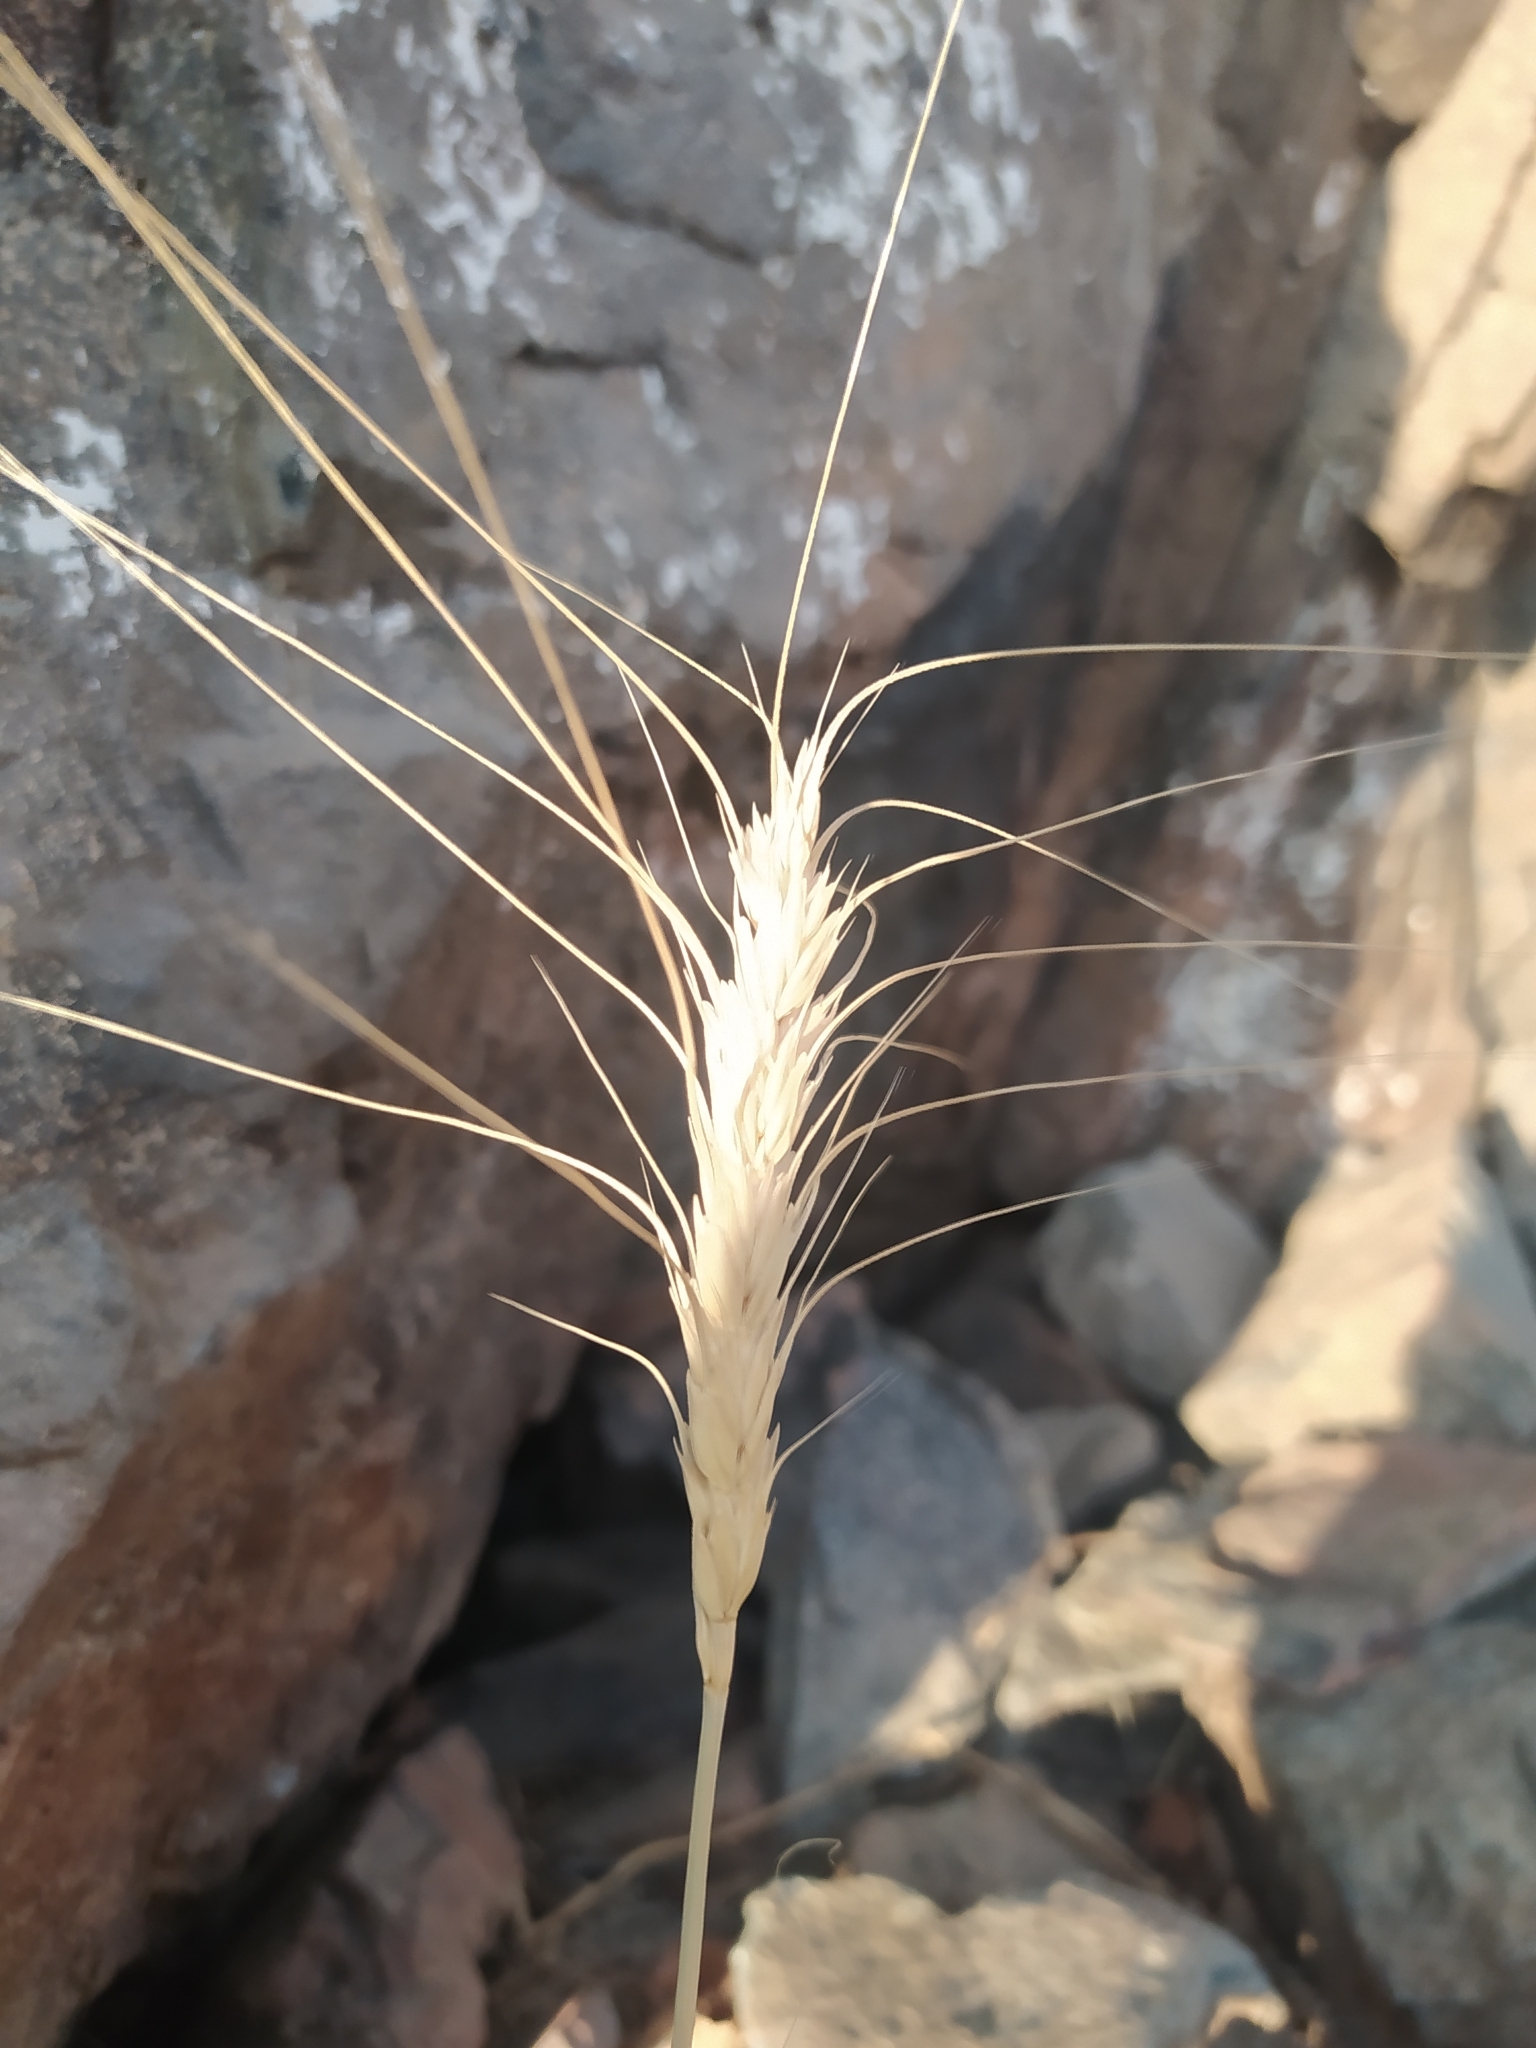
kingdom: Plantae
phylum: Tracheophyta
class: Liliopsida
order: Poales
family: Poaceae
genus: Triticum
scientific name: Triticum aestivum
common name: Common wheat
